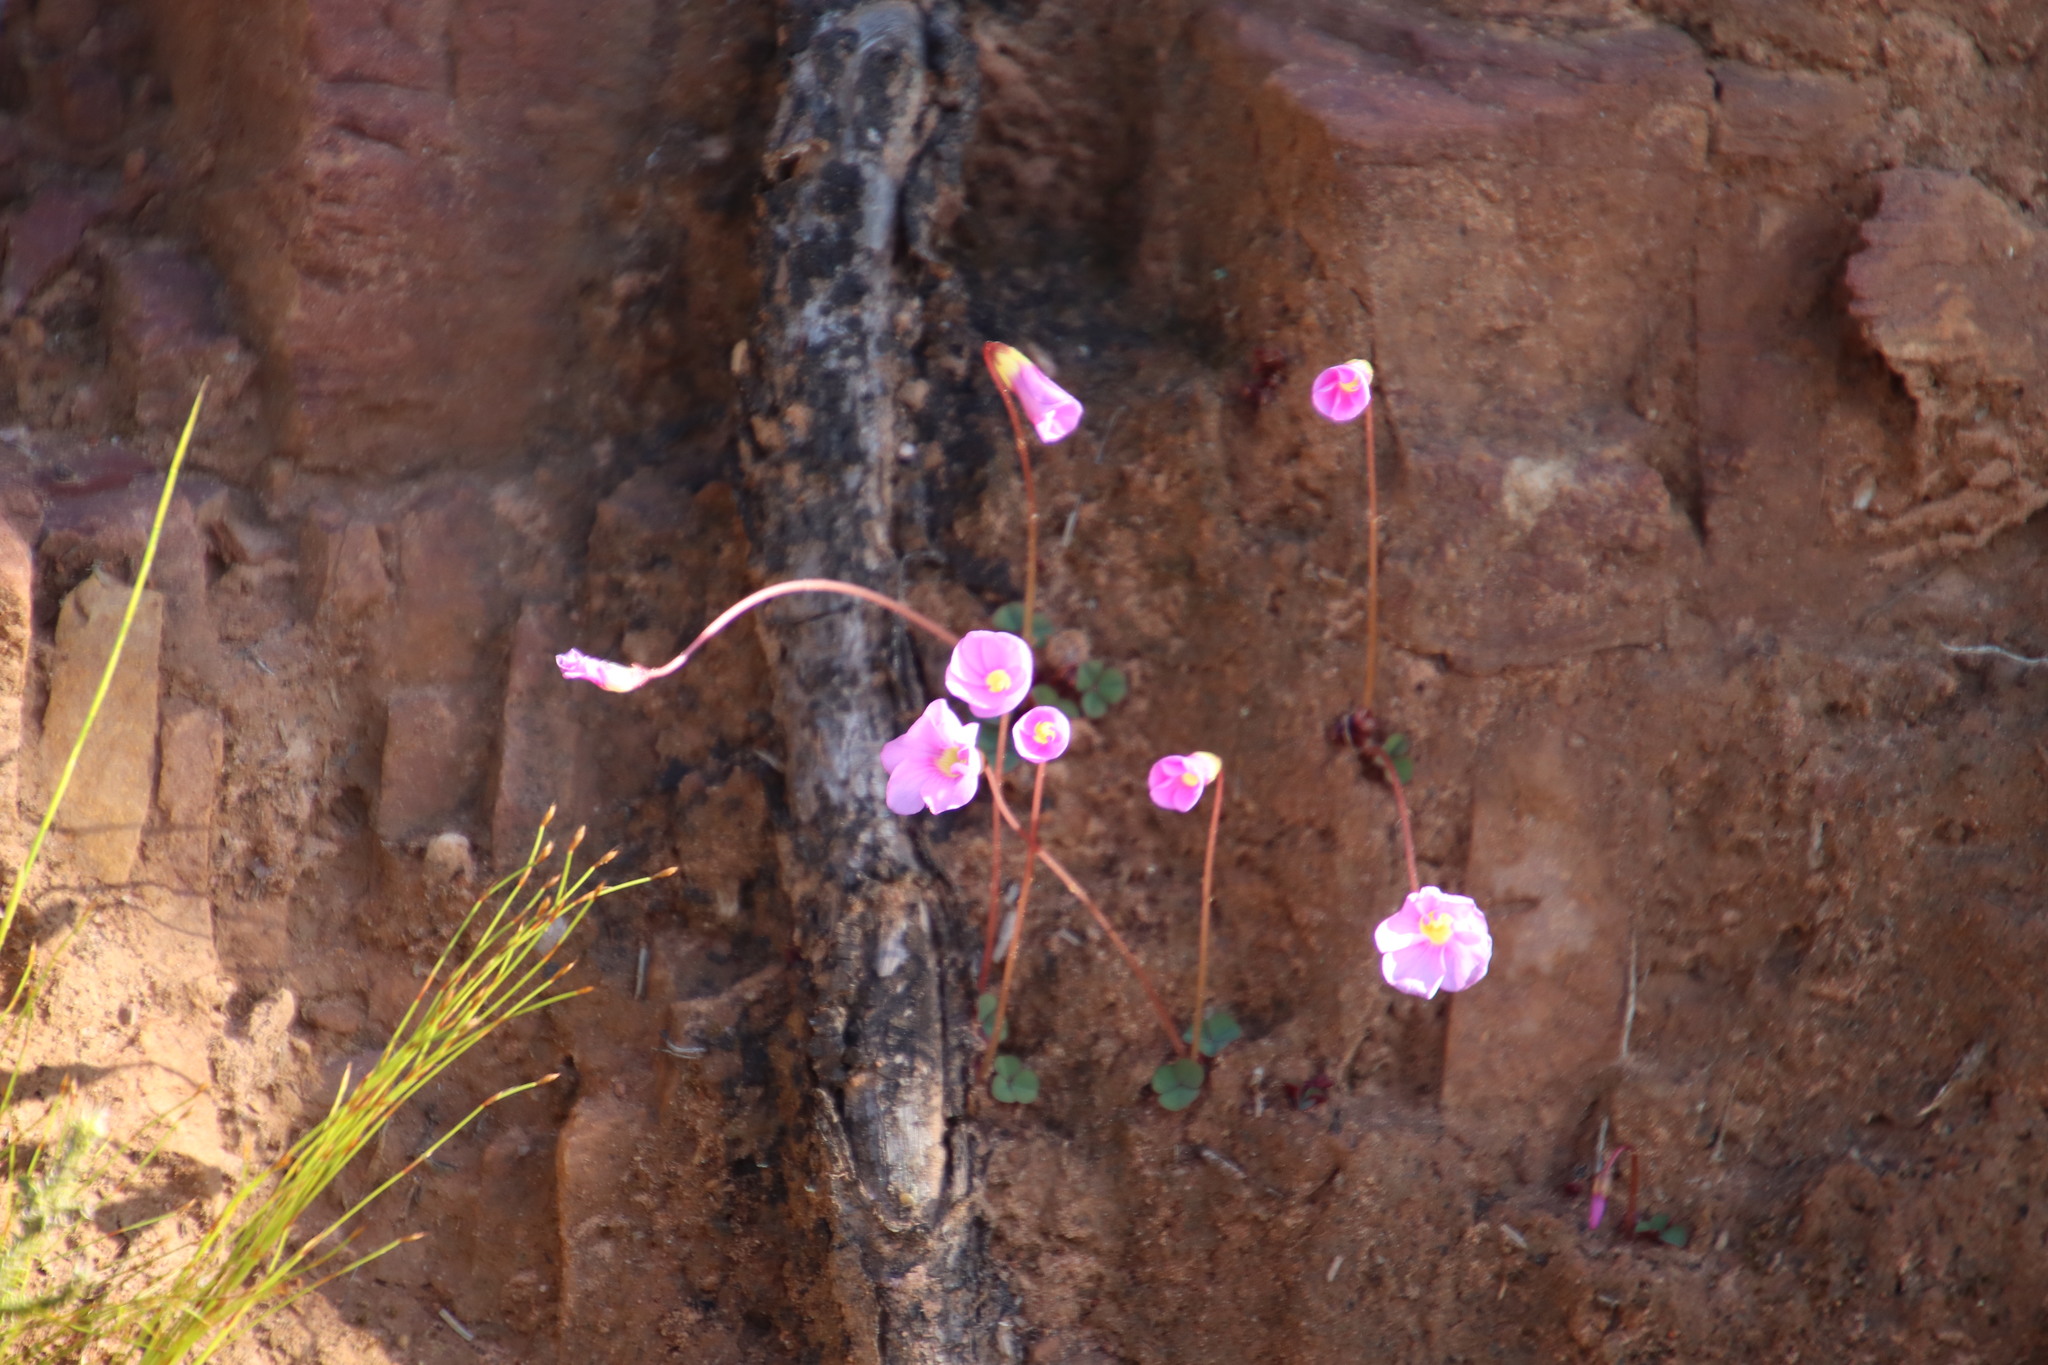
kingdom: Plantae
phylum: Tracheophyta
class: Magnoliopsida
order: Oxalidales
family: Oxalidaceae
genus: Oxalis
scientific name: Oxalis commutata
